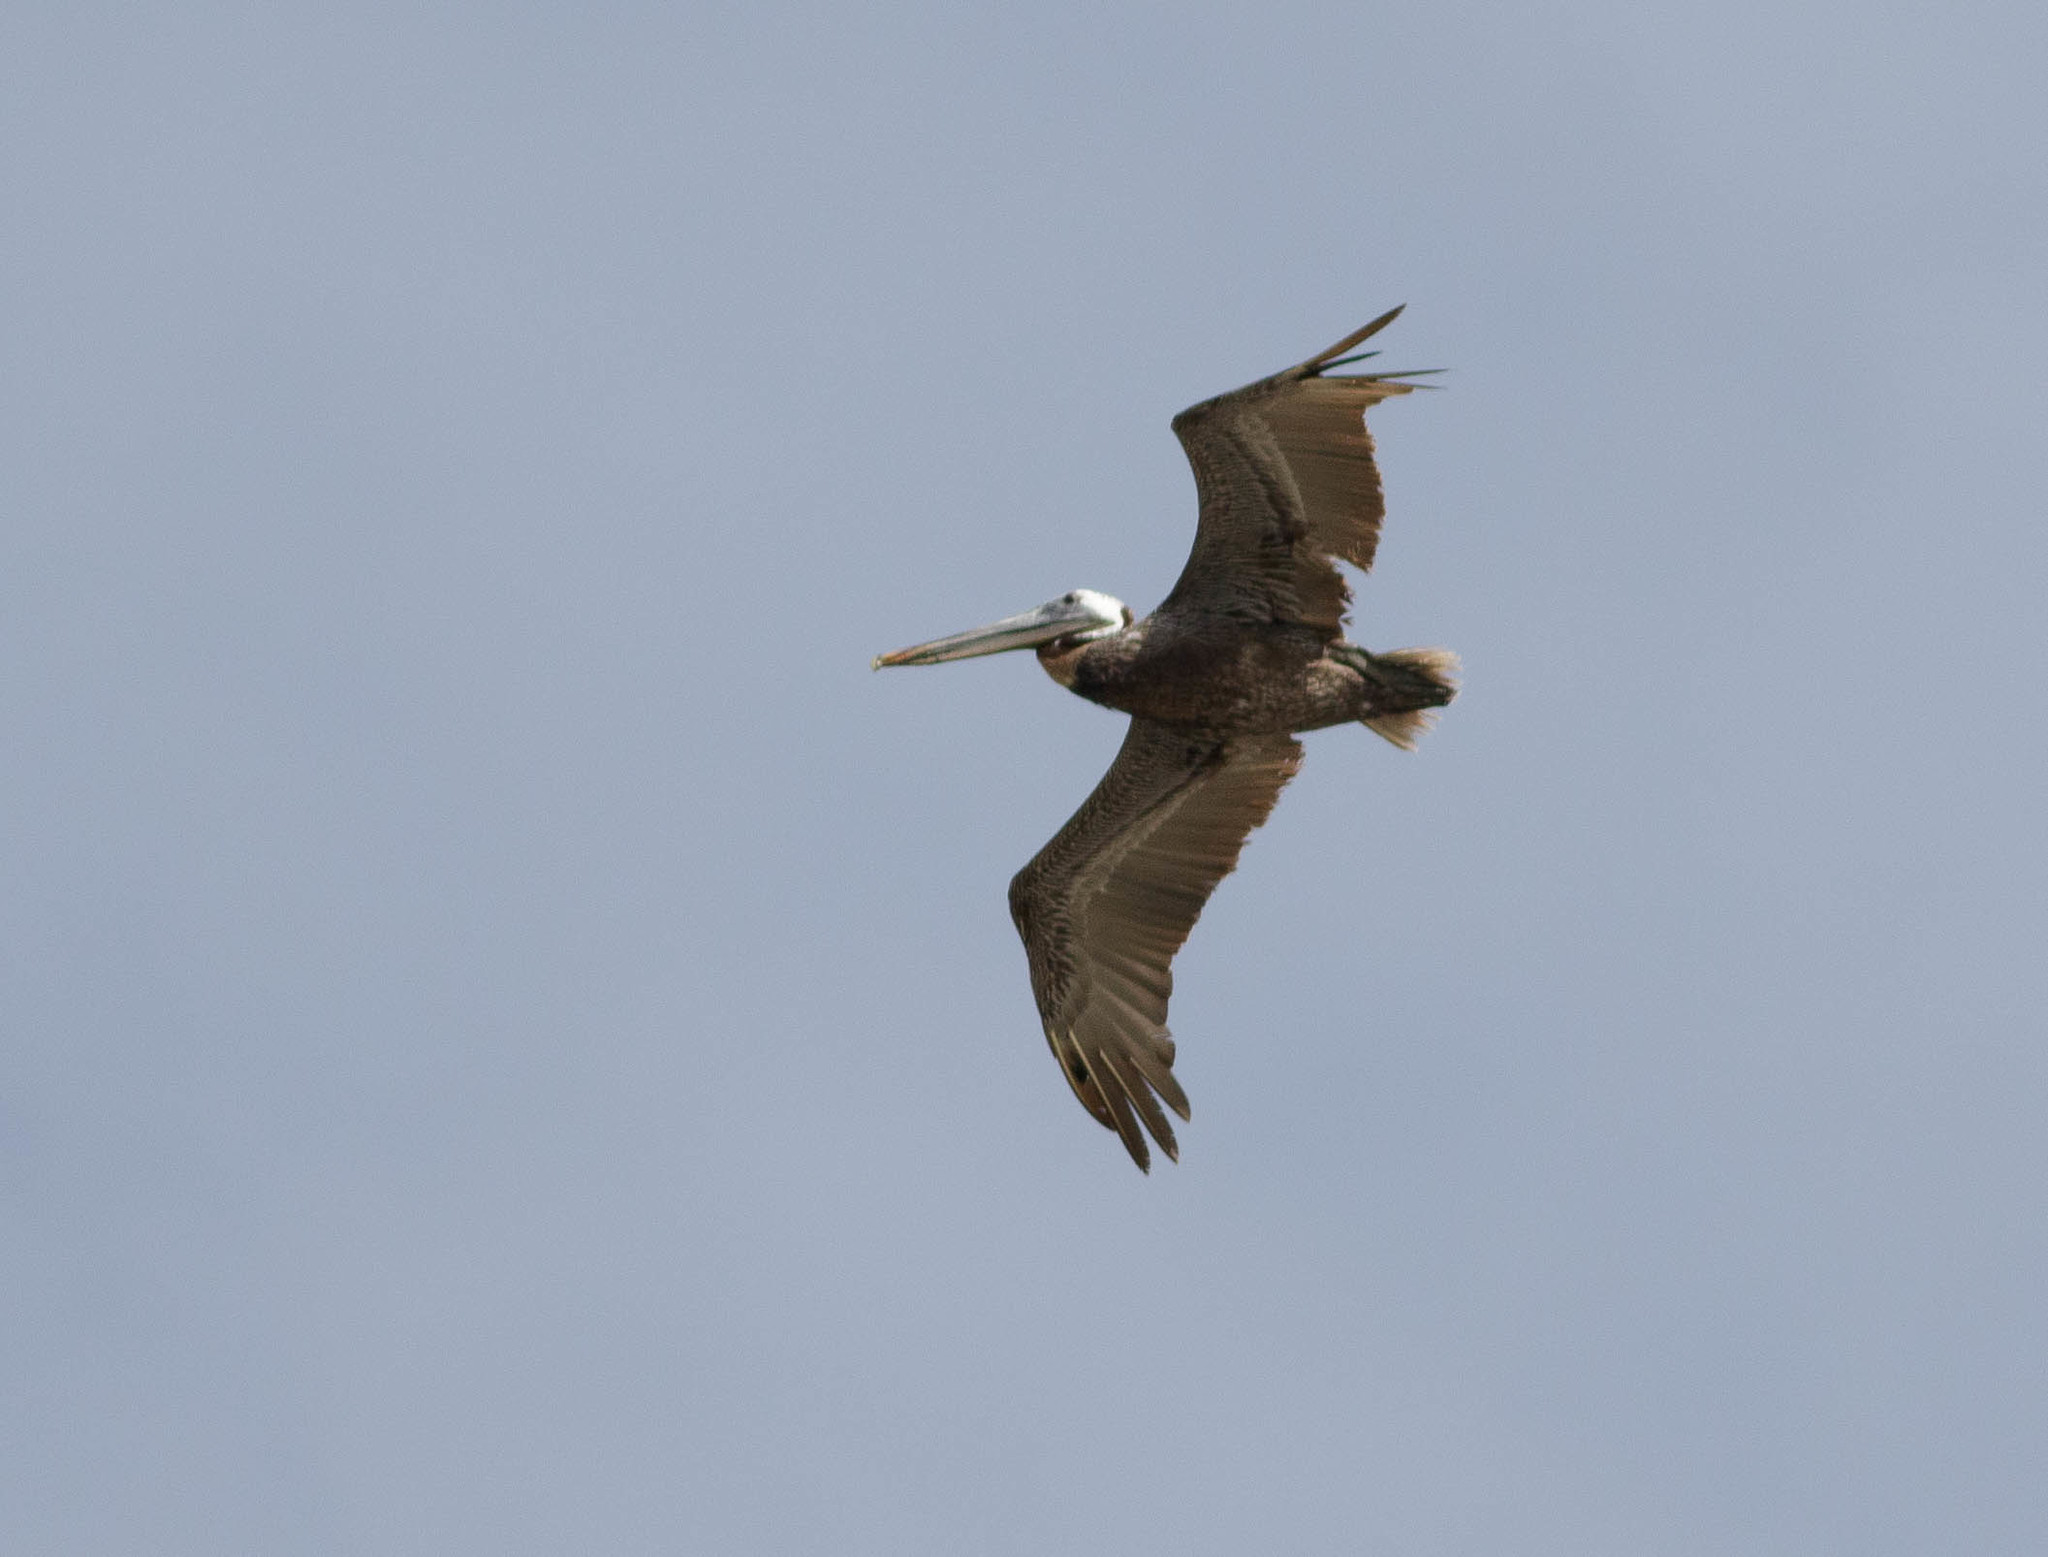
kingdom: Animalia
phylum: Chordata
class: Aves
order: Pelecaniformes
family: Pelecanidae
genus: Pelecanus
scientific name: Pelecanus occidentalis
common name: Brown pelican
